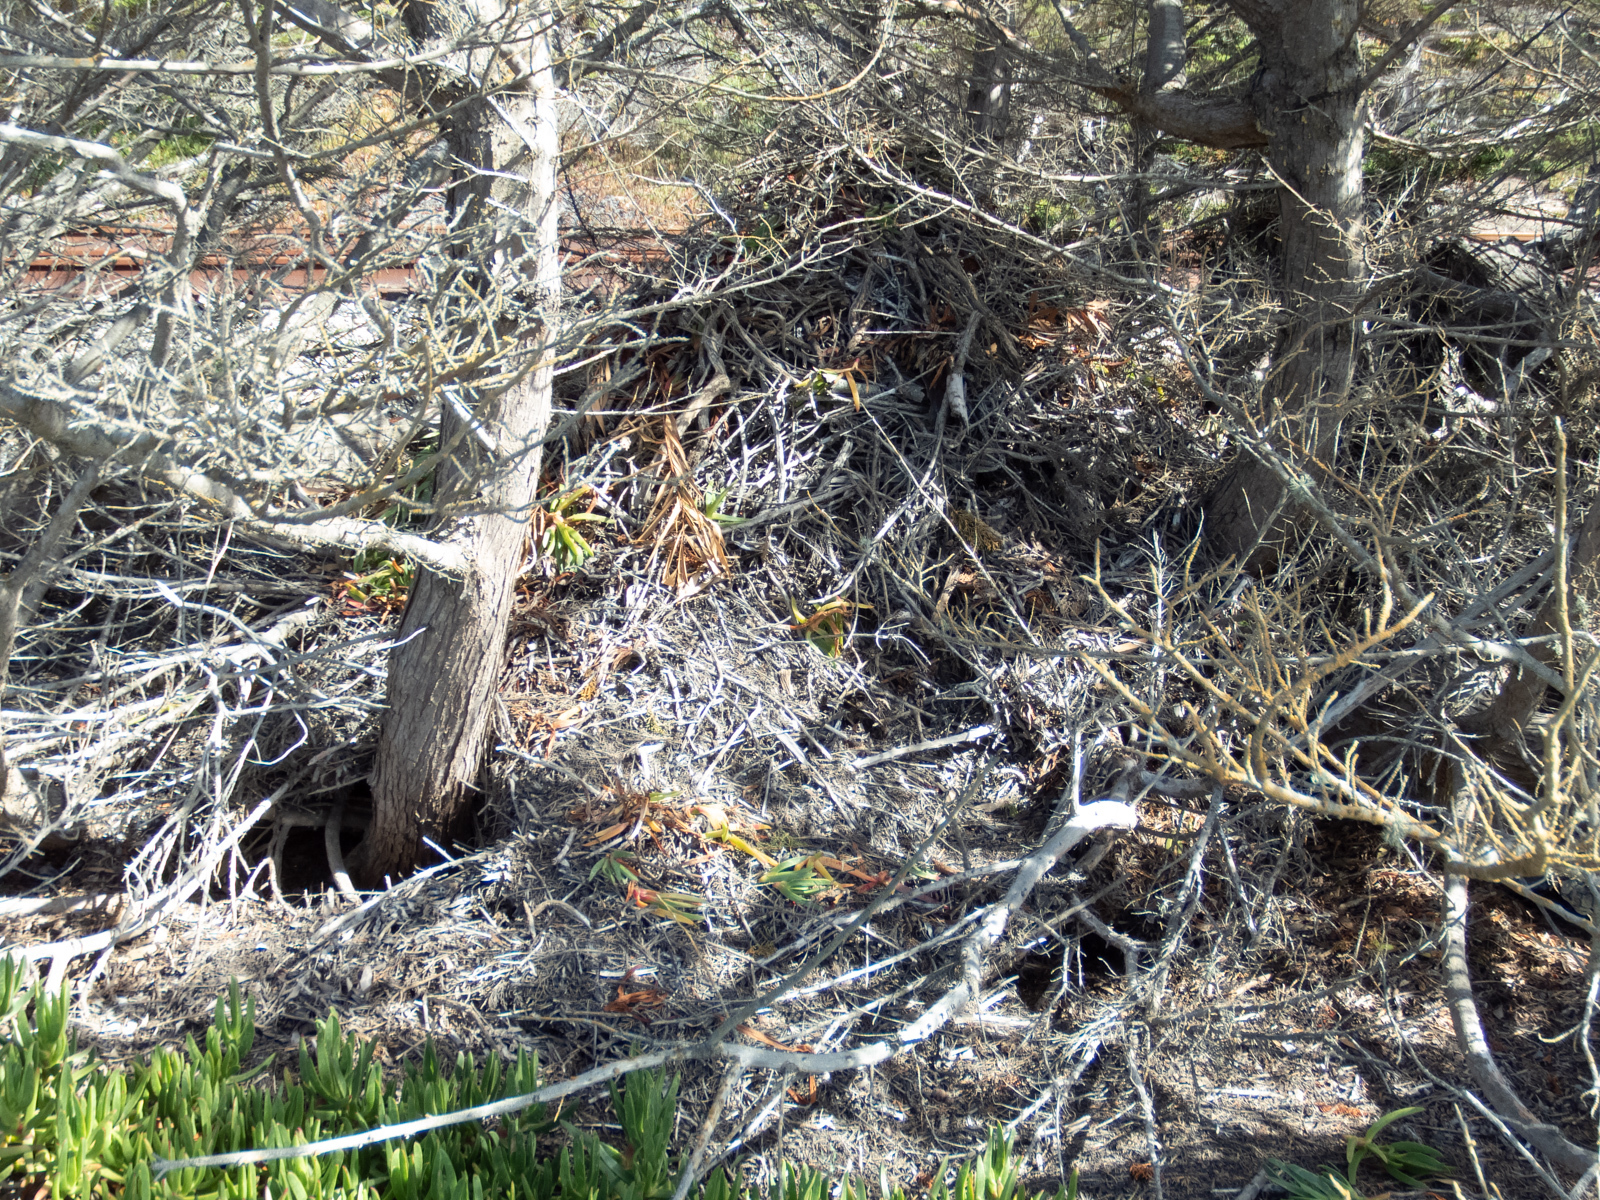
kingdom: Animalia
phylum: Chordata
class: Mammalia
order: Rodentia
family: Cricetidae
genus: Neotoma
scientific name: Neotoma macrotis
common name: Big-eared woodrat
